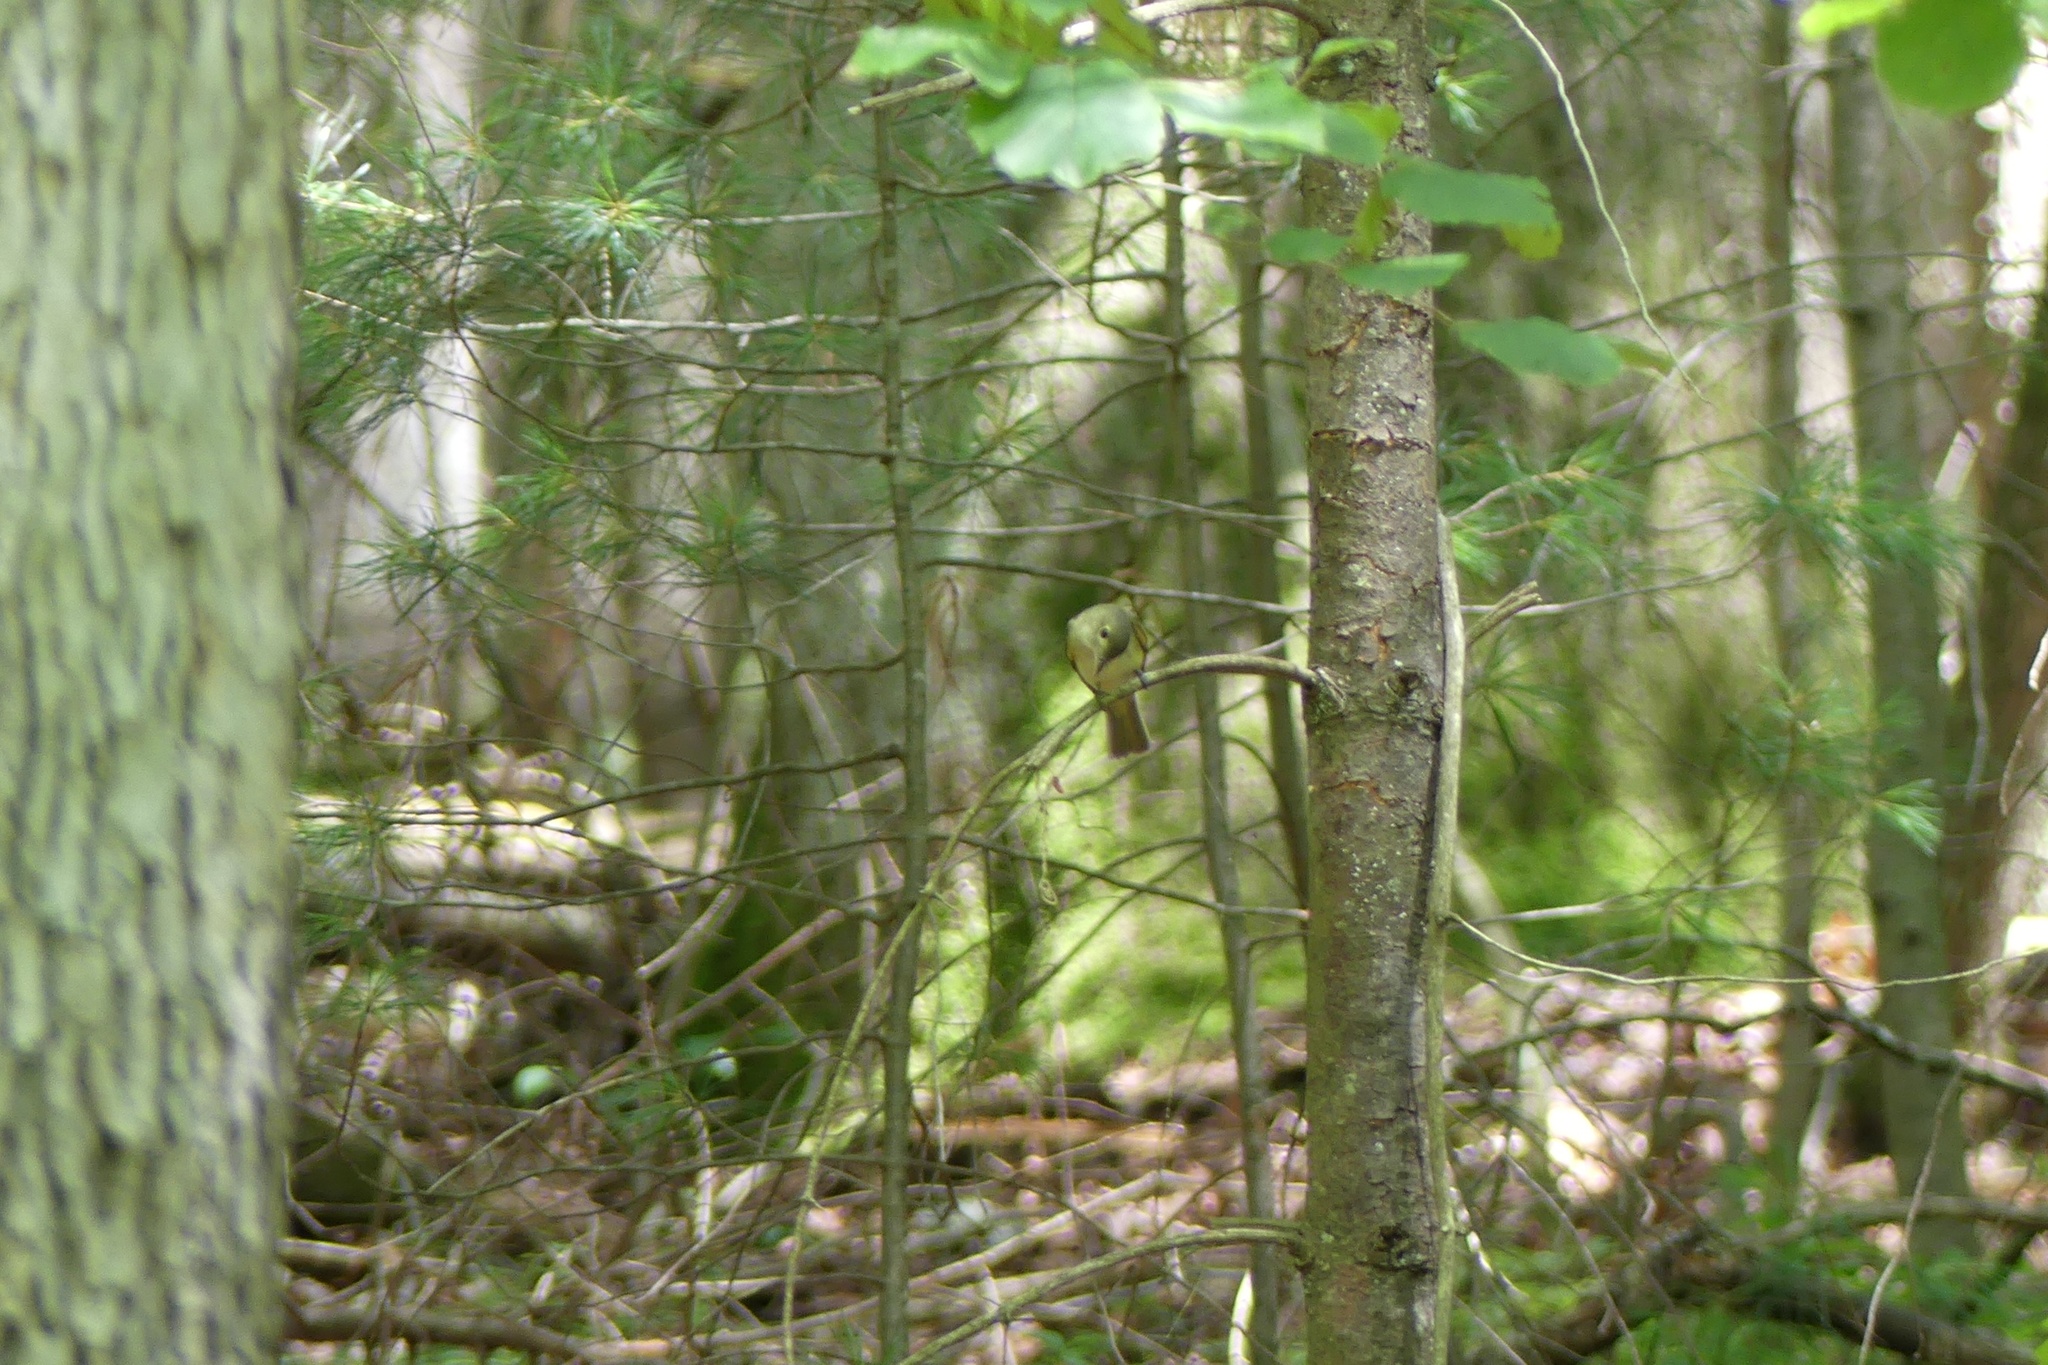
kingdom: Animalia
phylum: Chordata
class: Aves
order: Passeriformes
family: Tyrannidae
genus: Empidonax
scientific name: Empidonax
